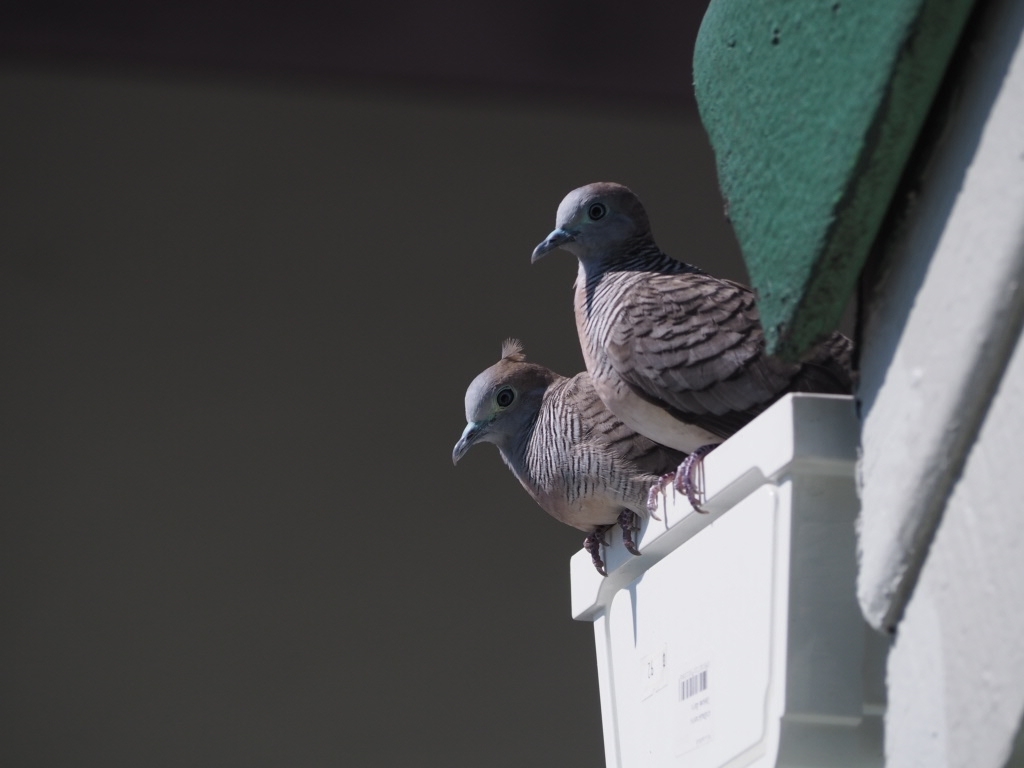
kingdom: Animalia
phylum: Chordata
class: Aves
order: Columbiformes
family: Columbidae
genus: Geopelia
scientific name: Geopelia striata
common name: Zebra dove
